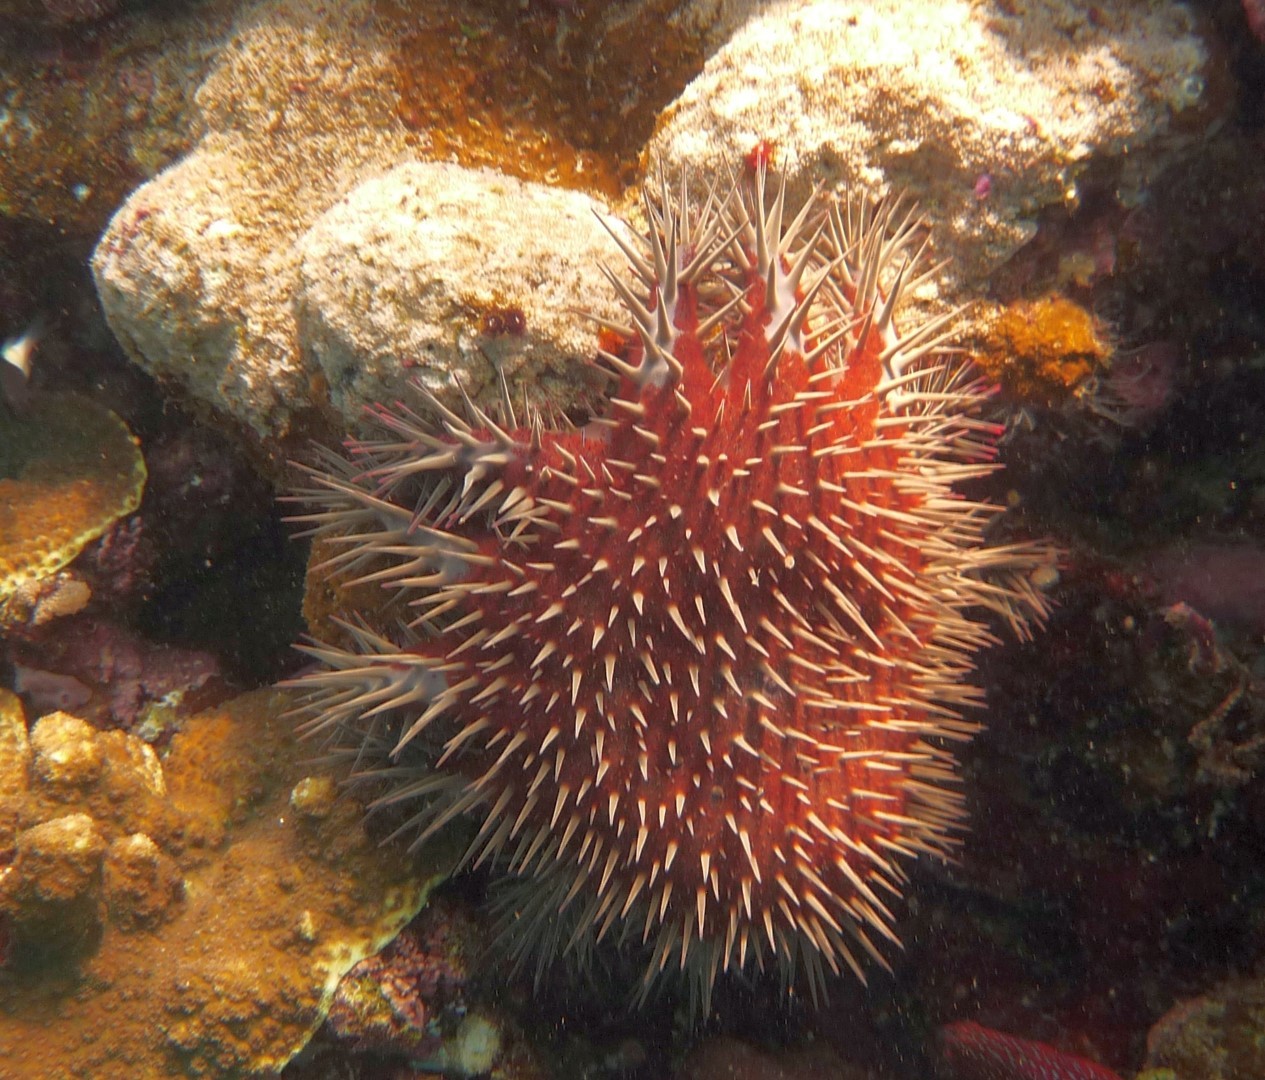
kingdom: Animalia
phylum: Echinodermata
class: Asteroidea
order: Valvatida
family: Acanthasteridae
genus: Acanthaster
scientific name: Acanthaster benziei
